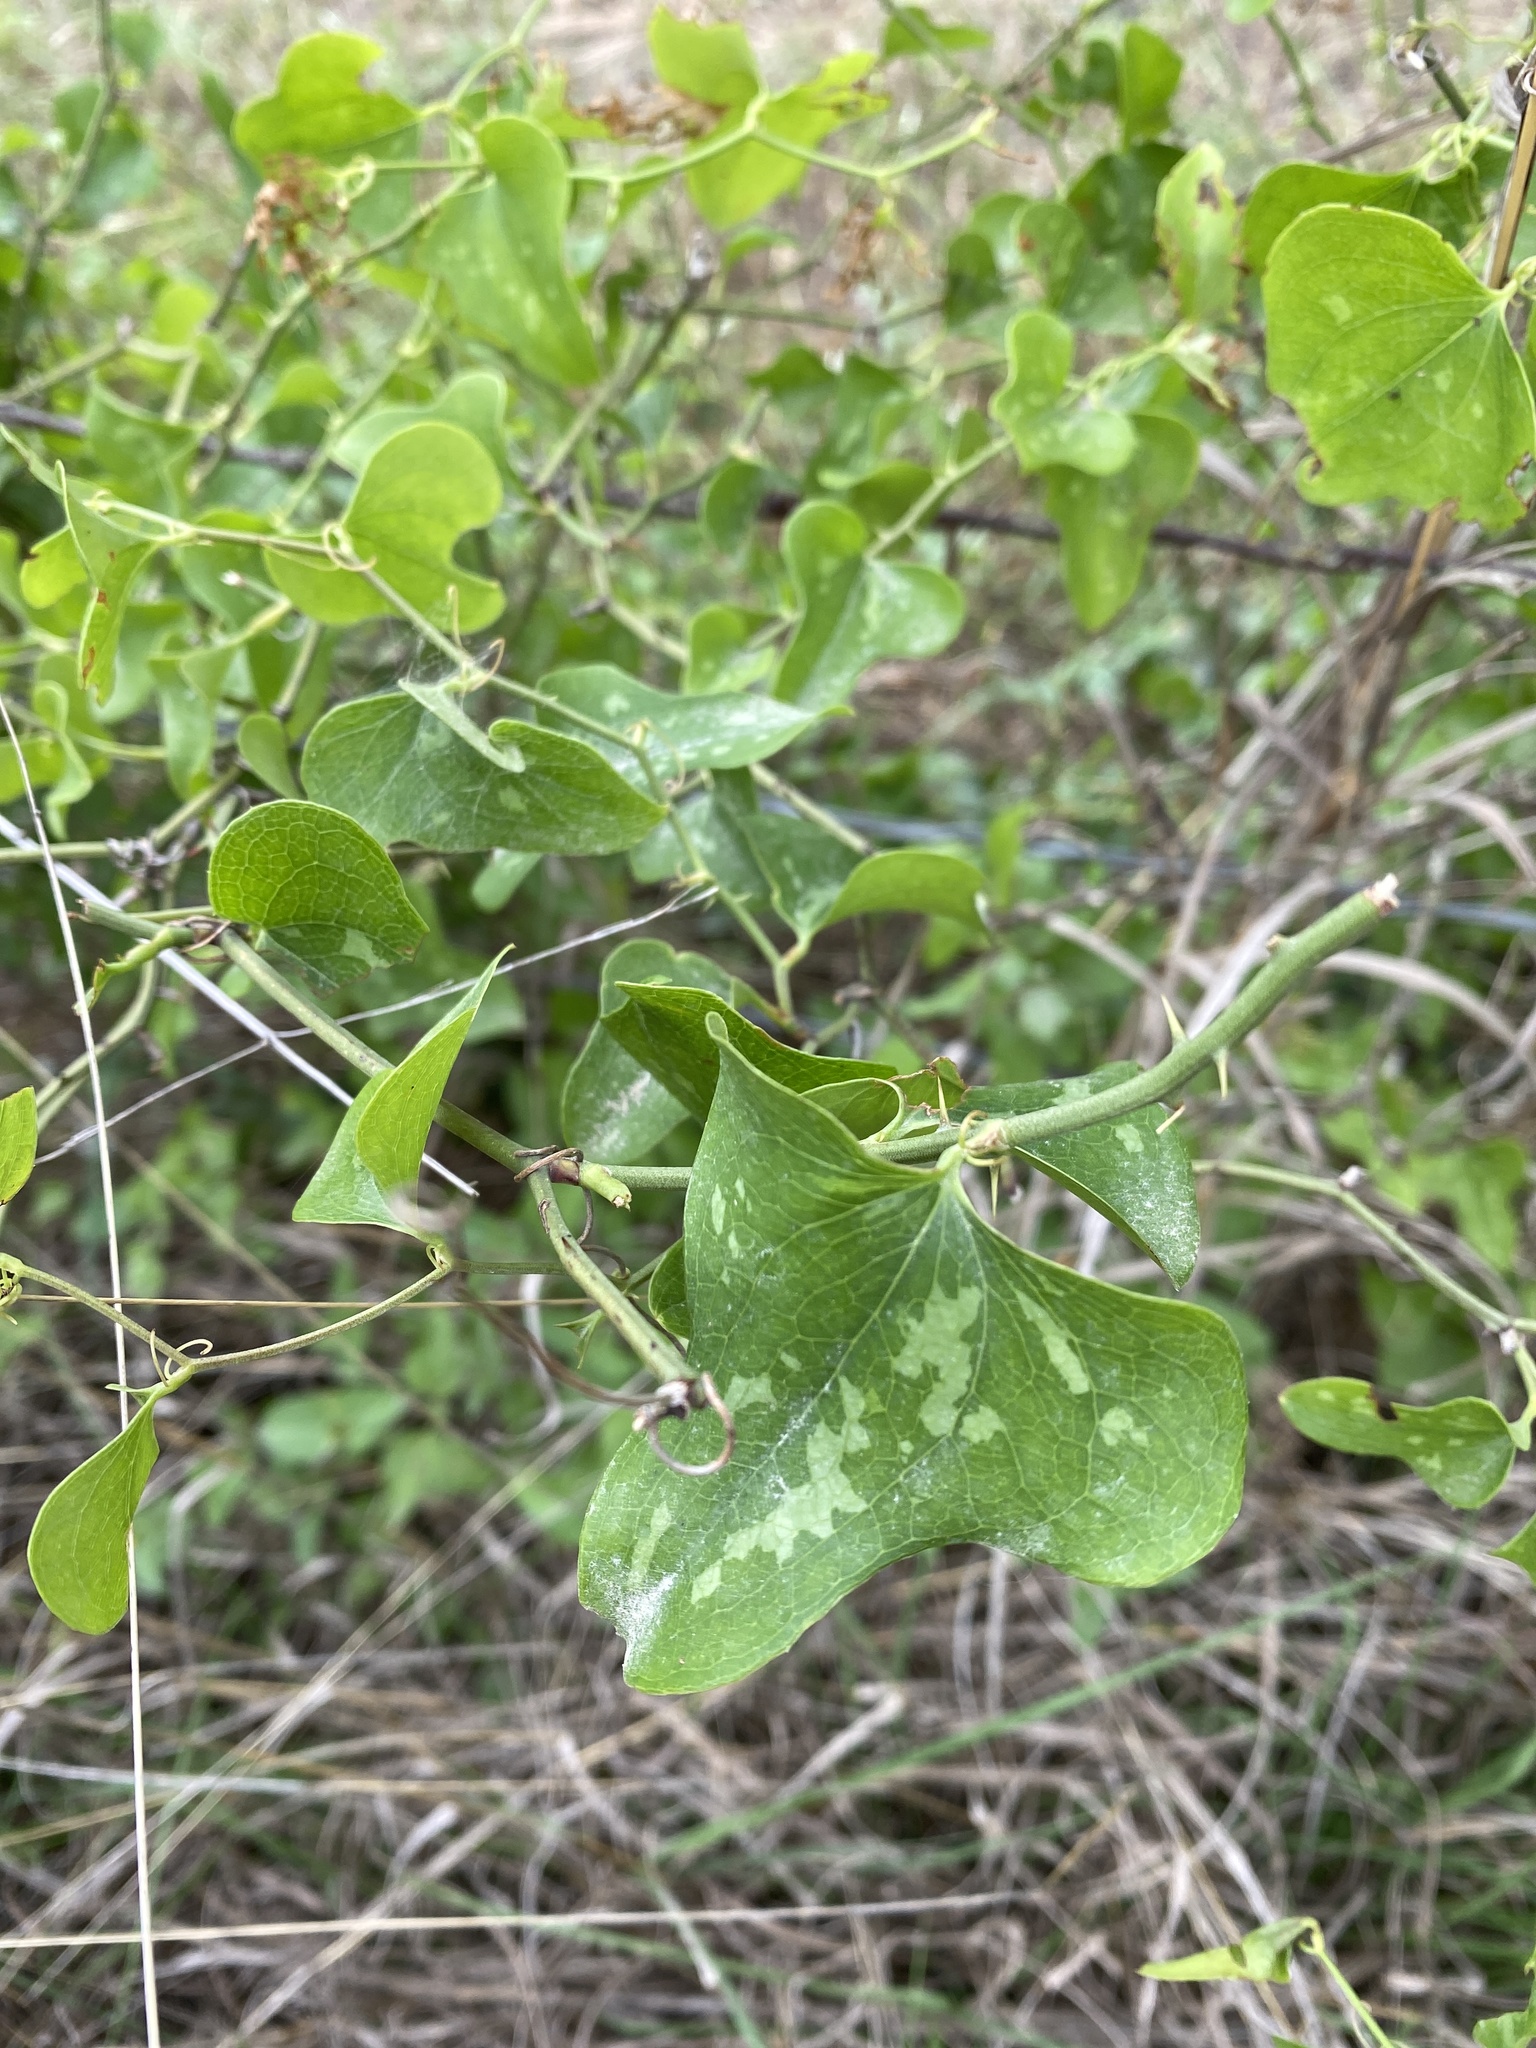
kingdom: Plantae
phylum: Tracheophyta
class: Liliopsida
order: Liliales
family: Smilacaceae
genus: Smilax
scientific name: Smilax bona-nox
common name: Catbrier
